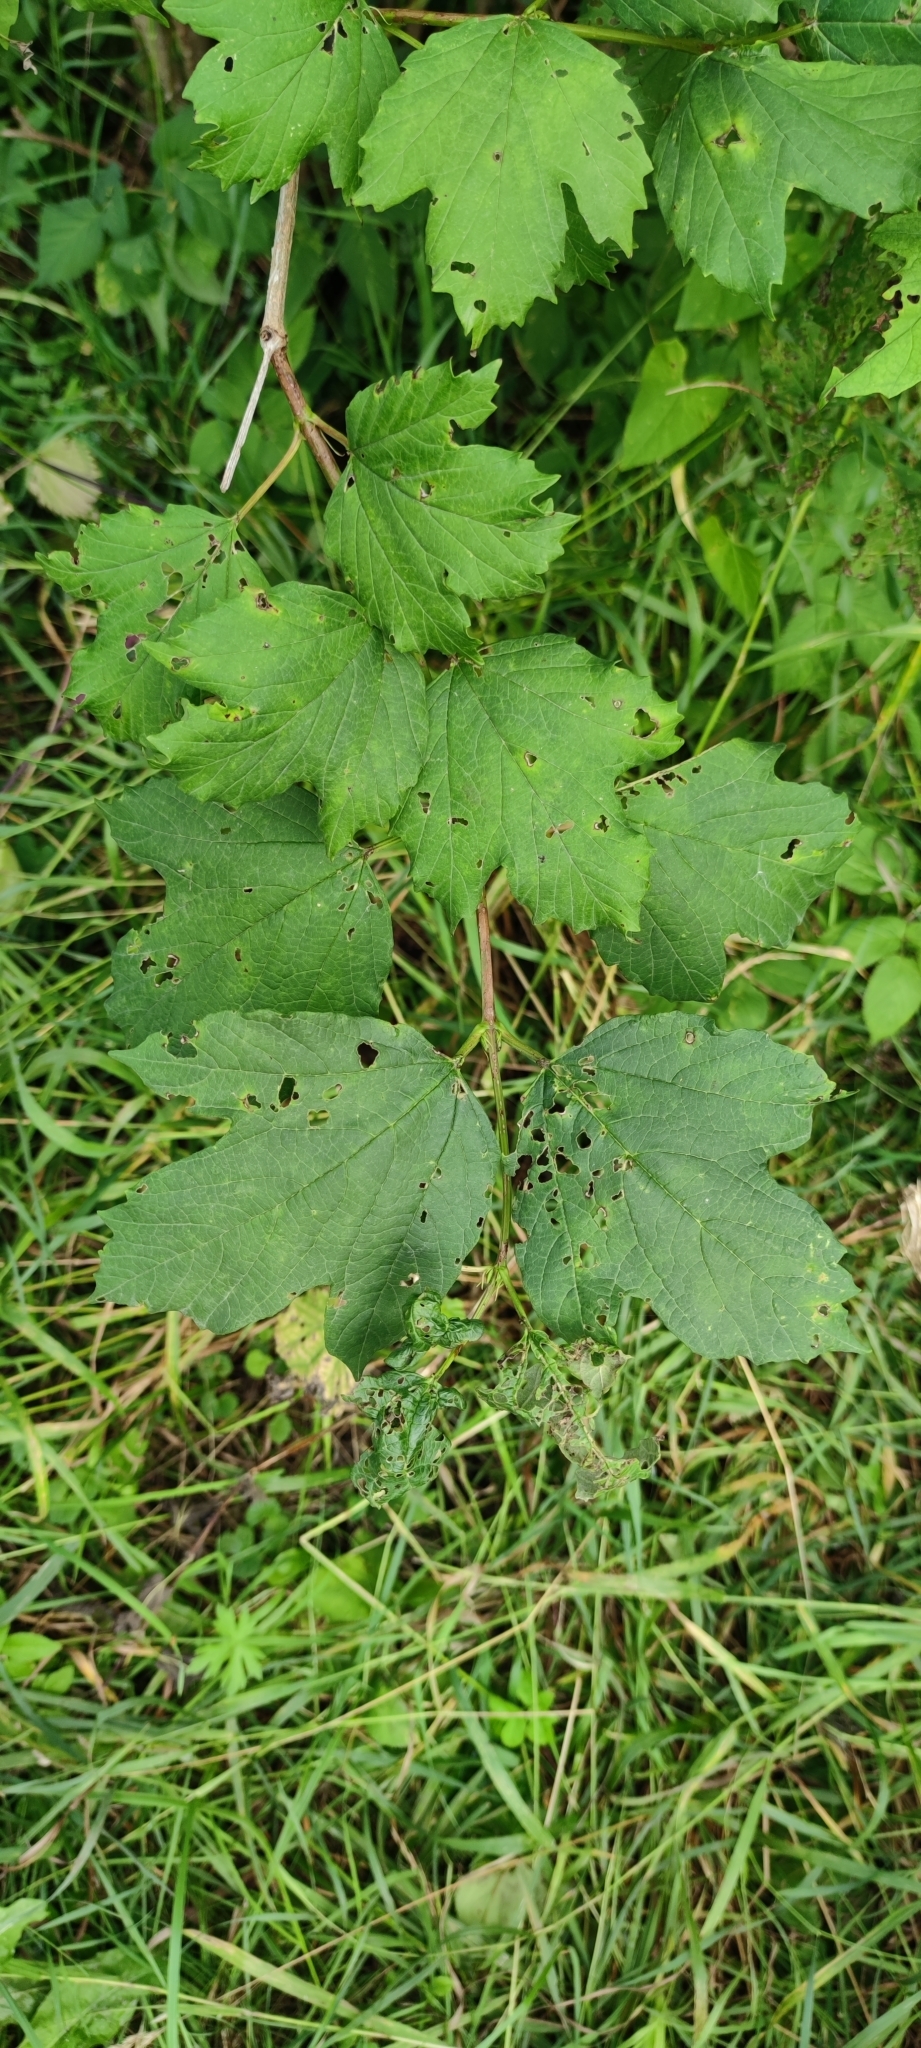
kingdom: Plantae
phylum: Tracheophyta
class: Magnoliopsida
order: Dipsacales
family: Viburnaceae
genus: Viburnum
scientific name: Viburnum opulus
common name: Guelder-rose
